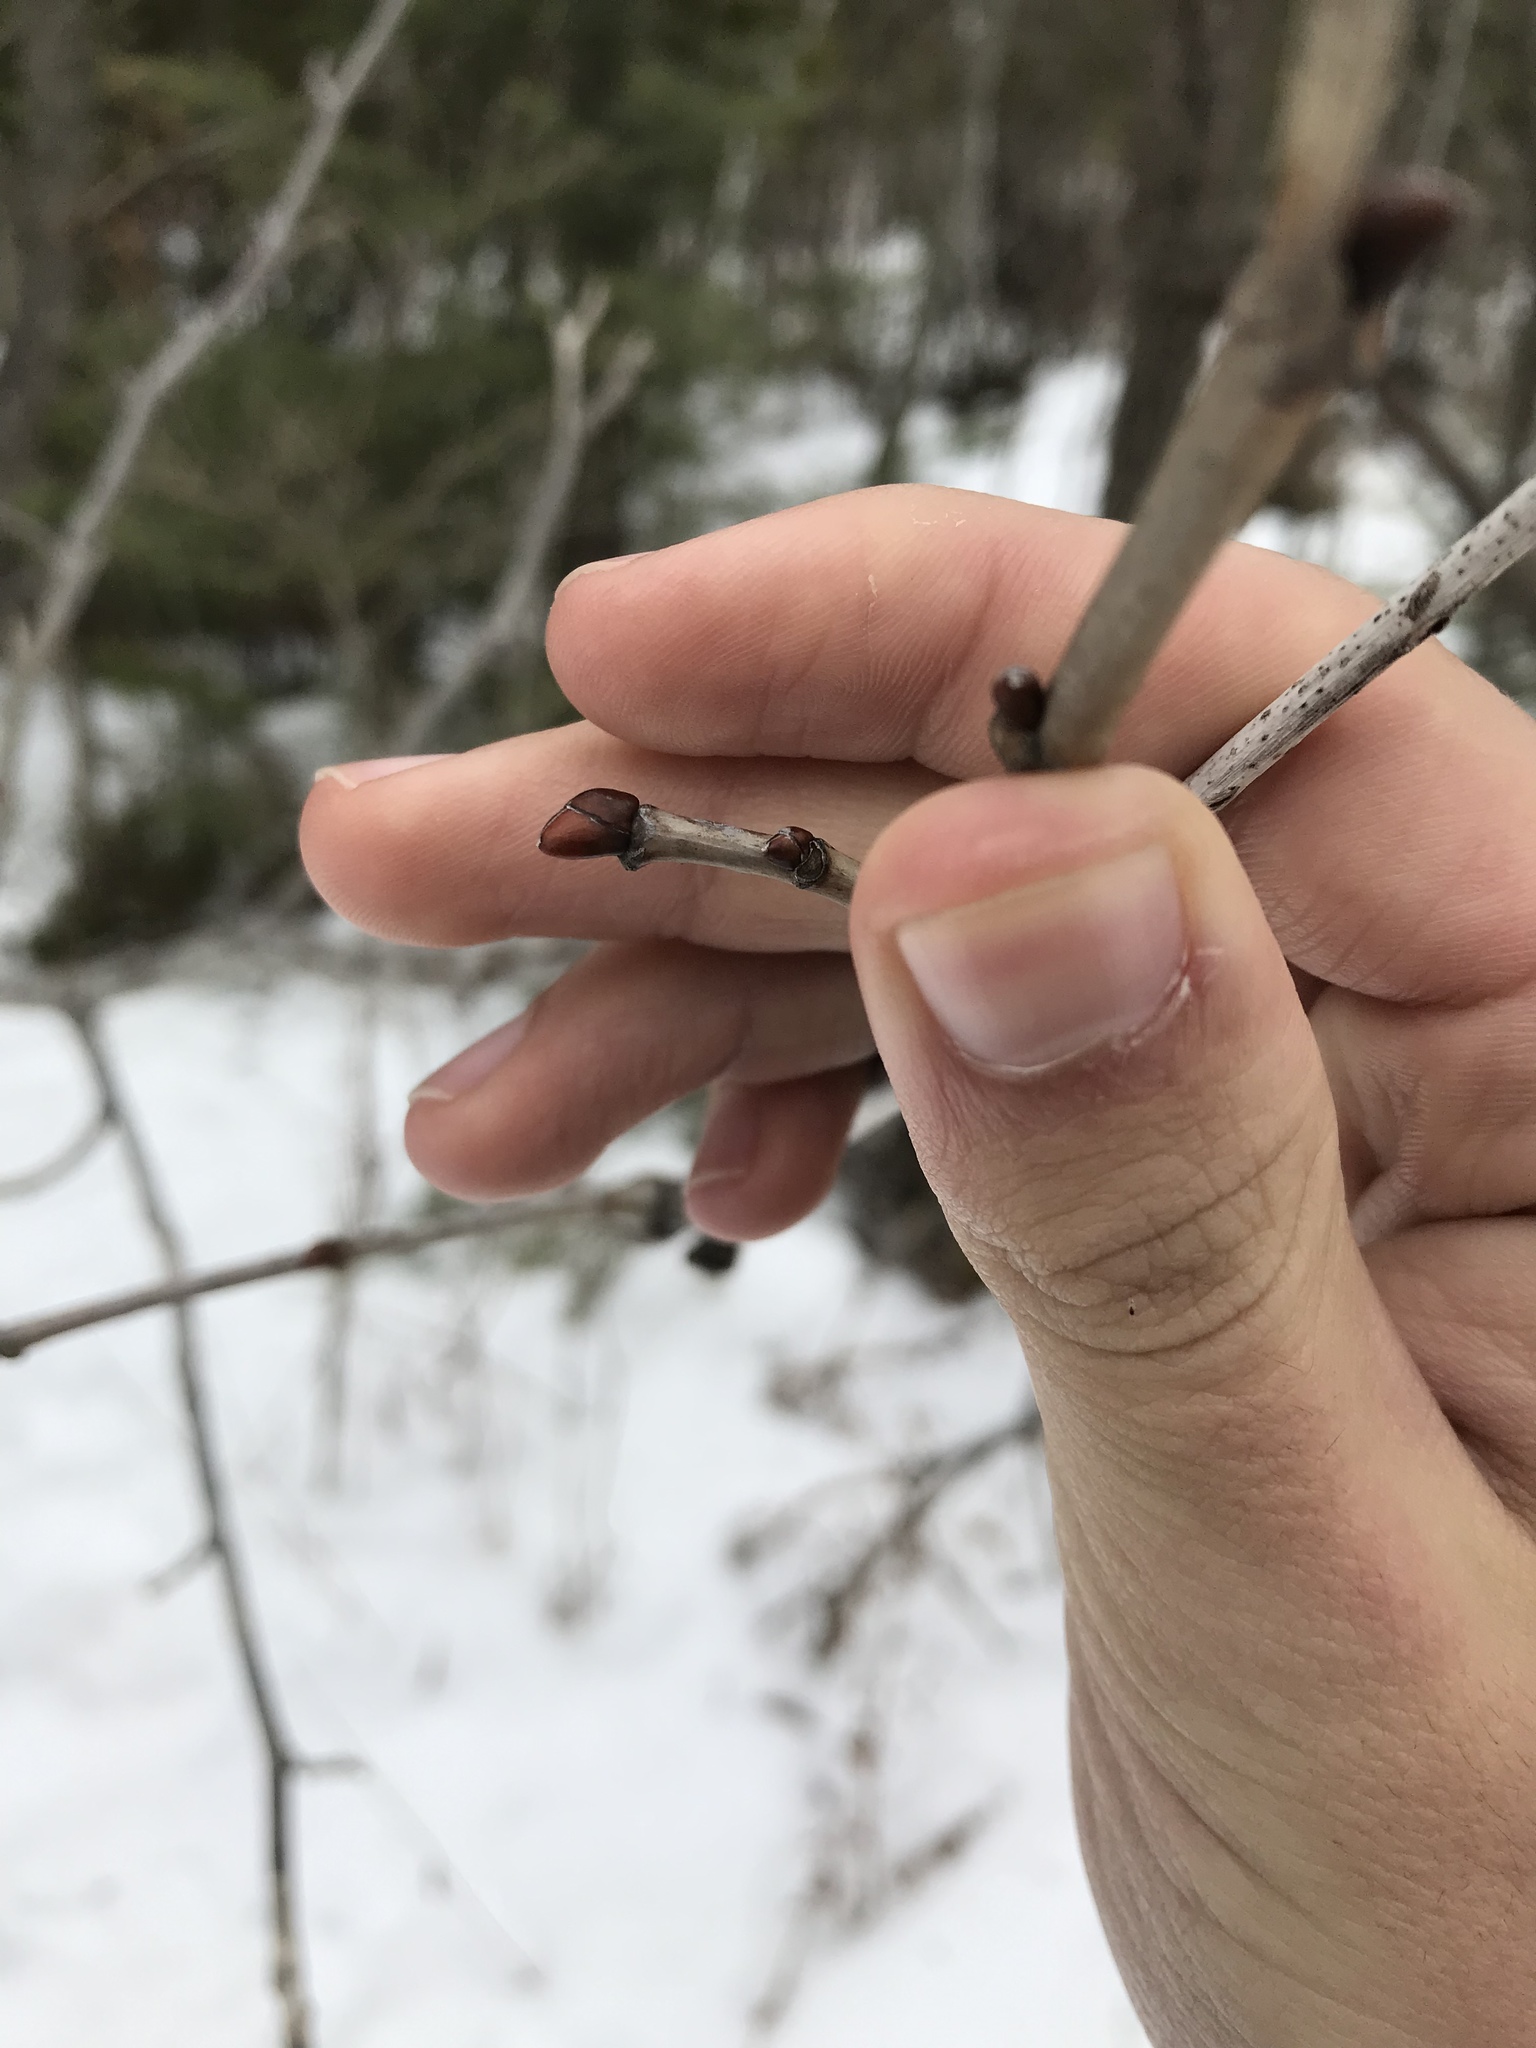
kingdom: Plantae
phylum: Tracheophyta
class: Magnoliopsida
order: Malvales
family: Malvaceae
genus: Tilia
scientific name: Tilia americana
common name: Basswood
